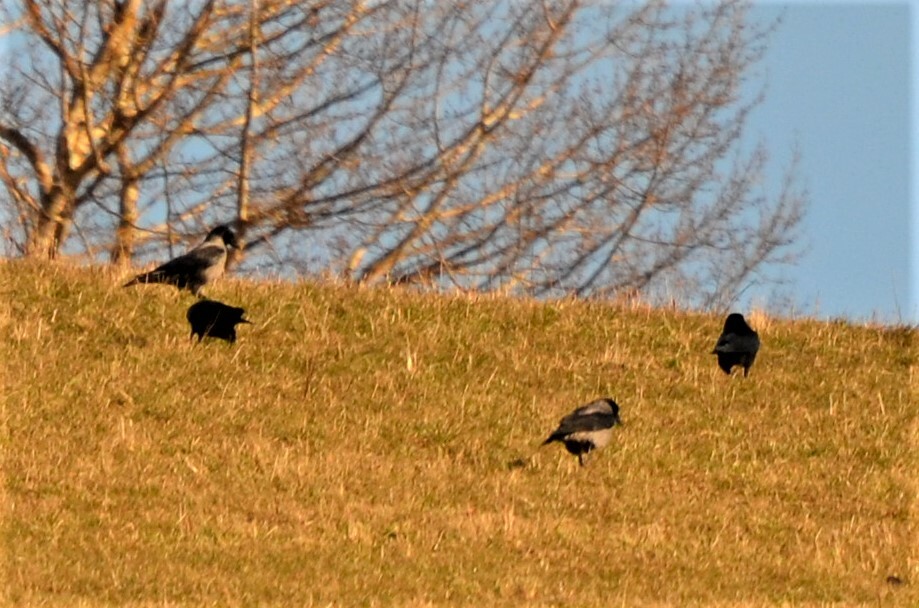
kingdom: Animalia
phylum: Chordata
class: Aves
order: Passeriformes
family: Corvidae
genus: Corvus
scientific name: Corvus cornix
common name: Hooded crow
